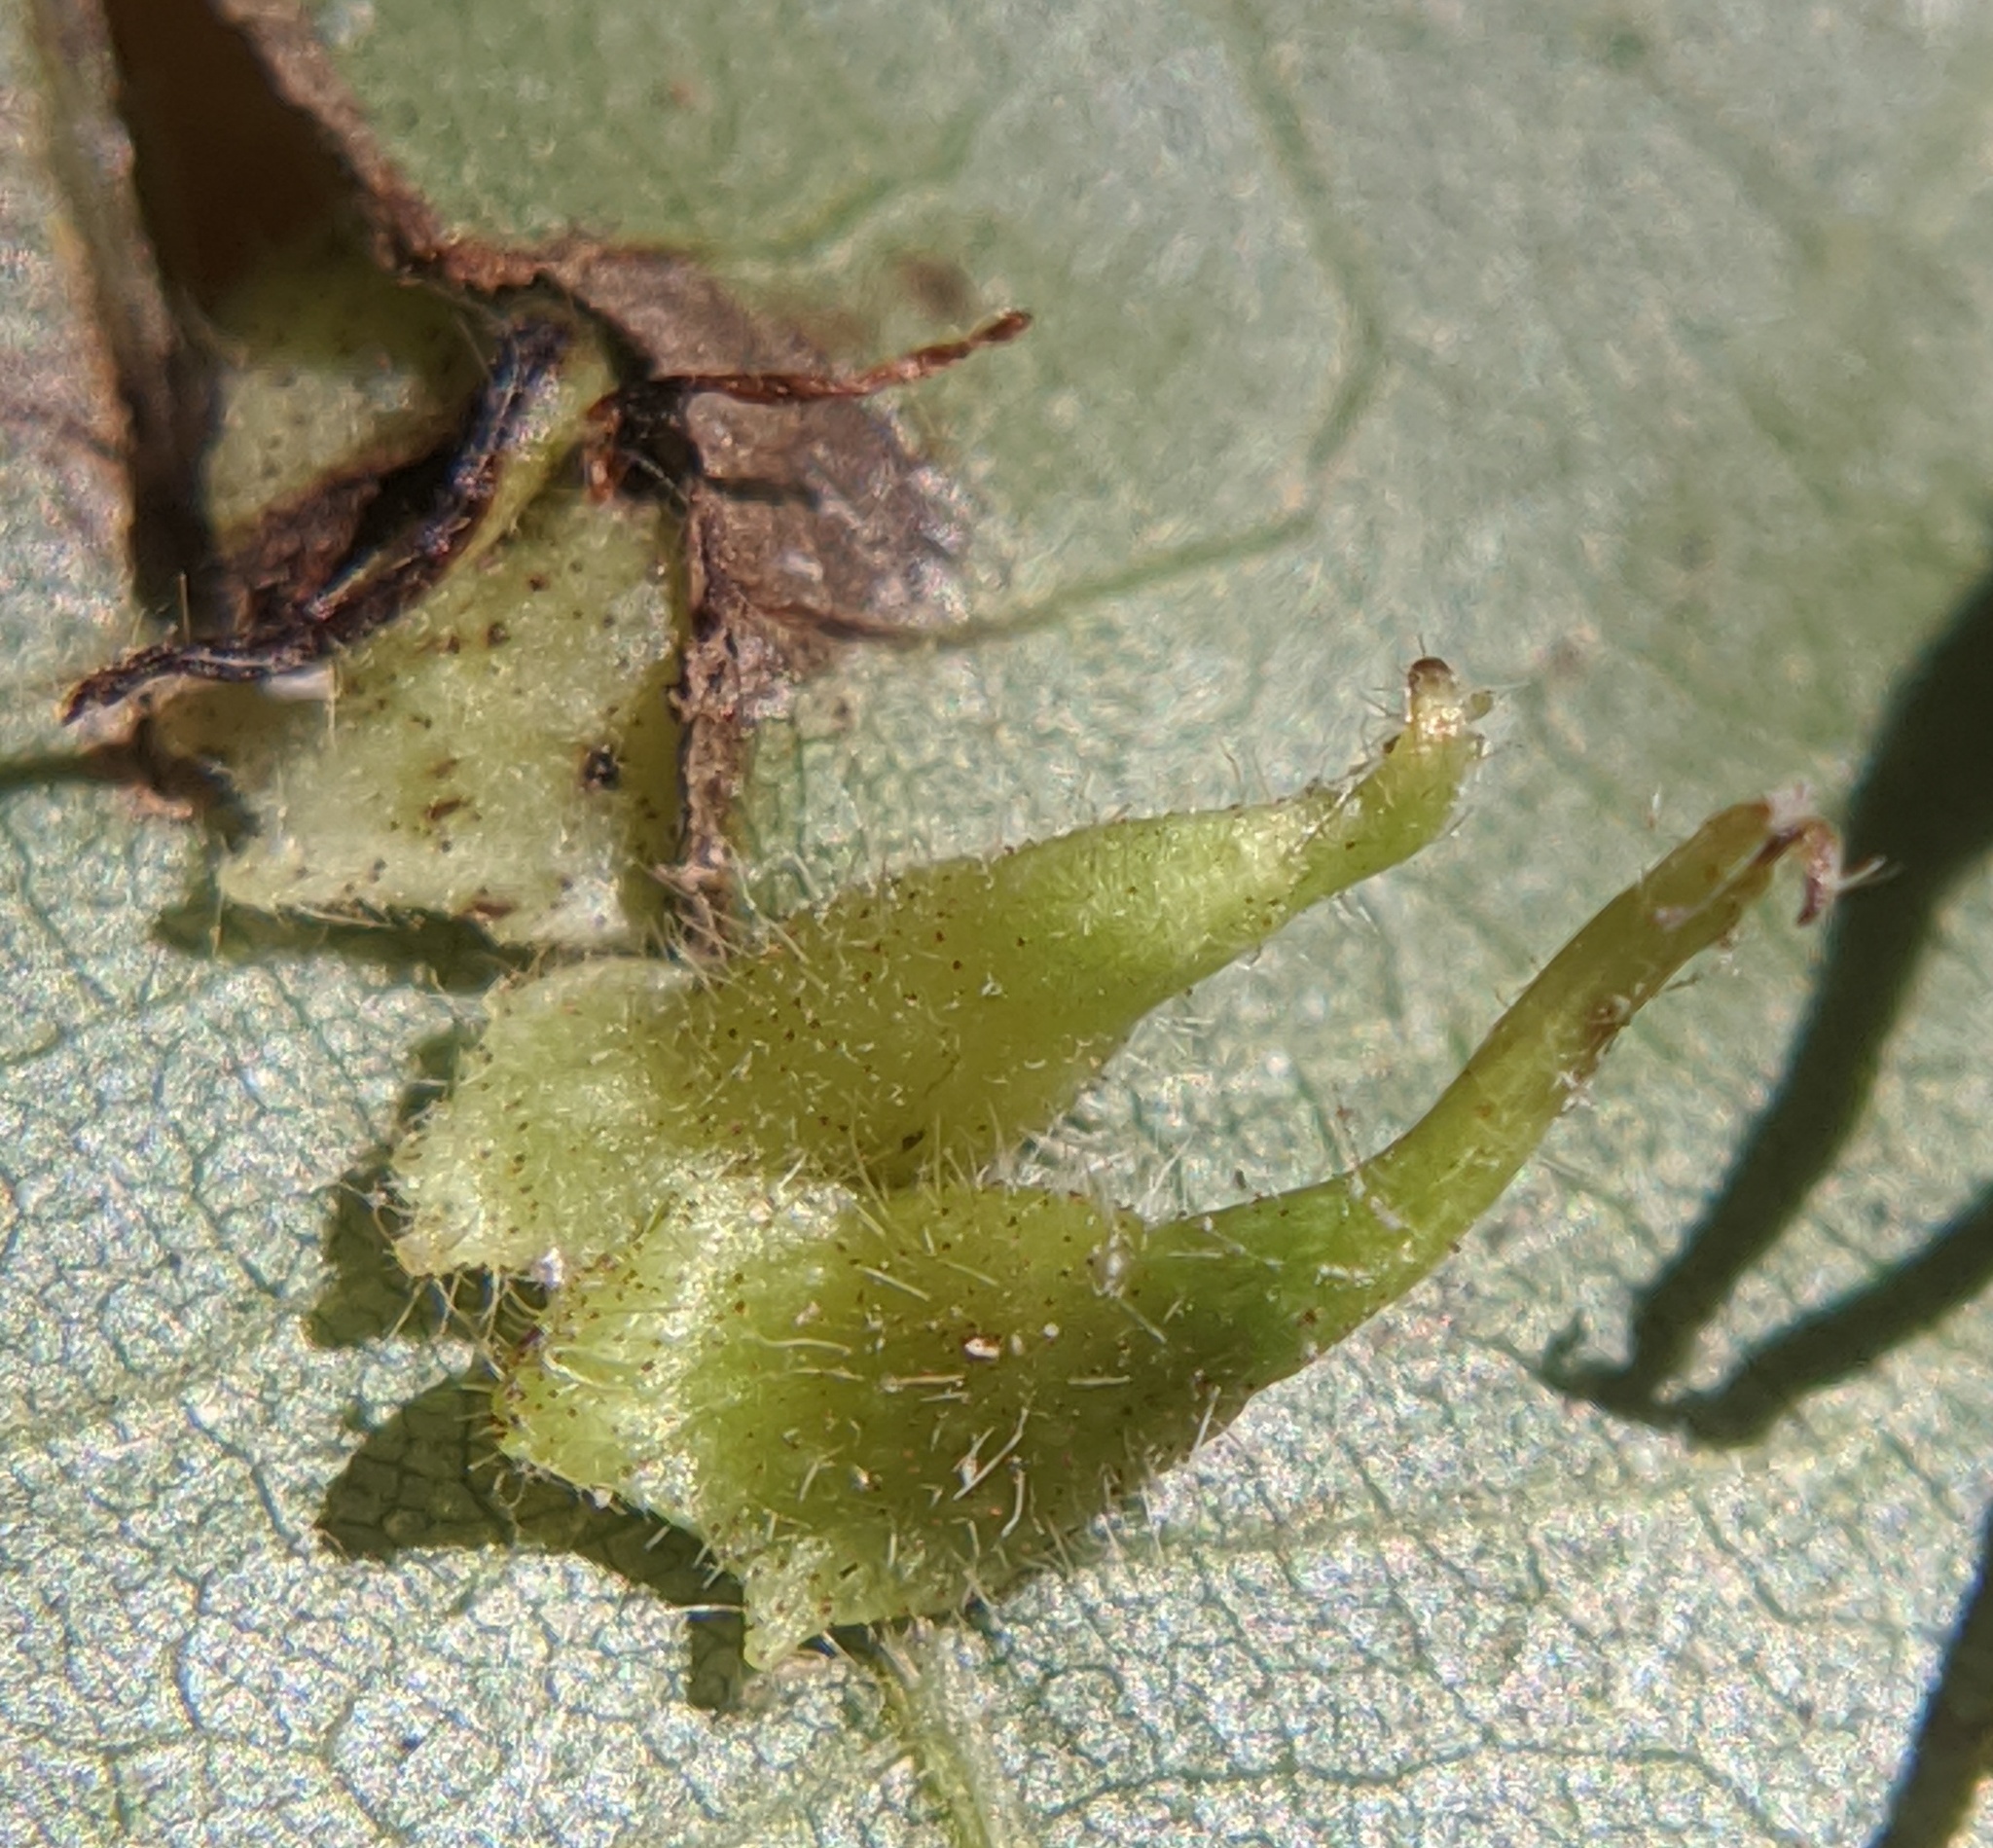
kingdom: Animalia
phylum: Arthropoda
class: Insecta
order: Diptera
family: Cecidomyiidae
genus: Caryomyia
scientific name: Caryomyia inclinata
